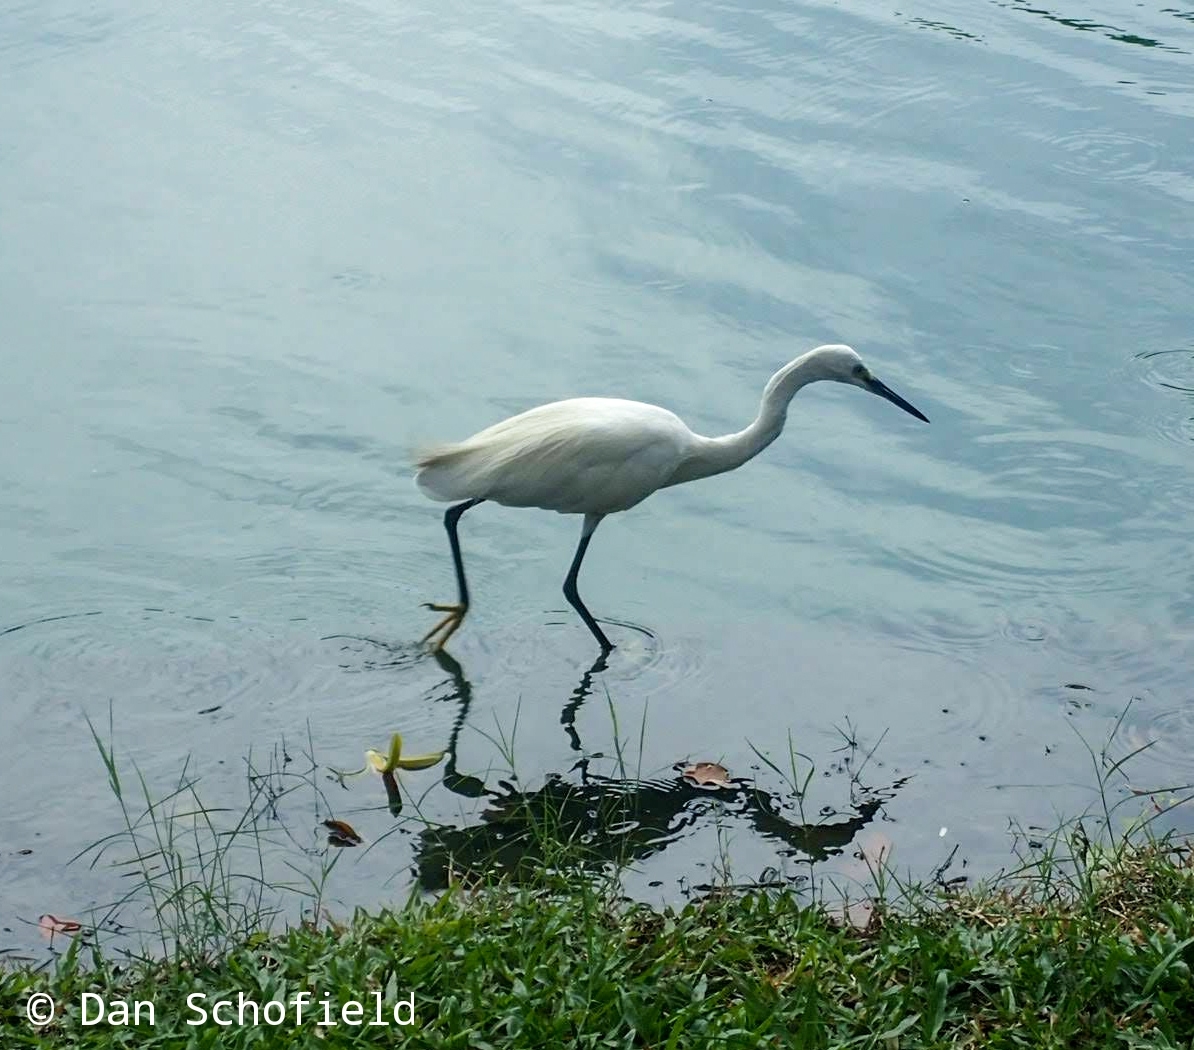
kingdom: Animalia
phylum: Chordata
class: Aves
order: Pelecaniformes
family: Ardeidae
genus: Egretta
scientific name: Egretta garzetta
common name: Little egret
